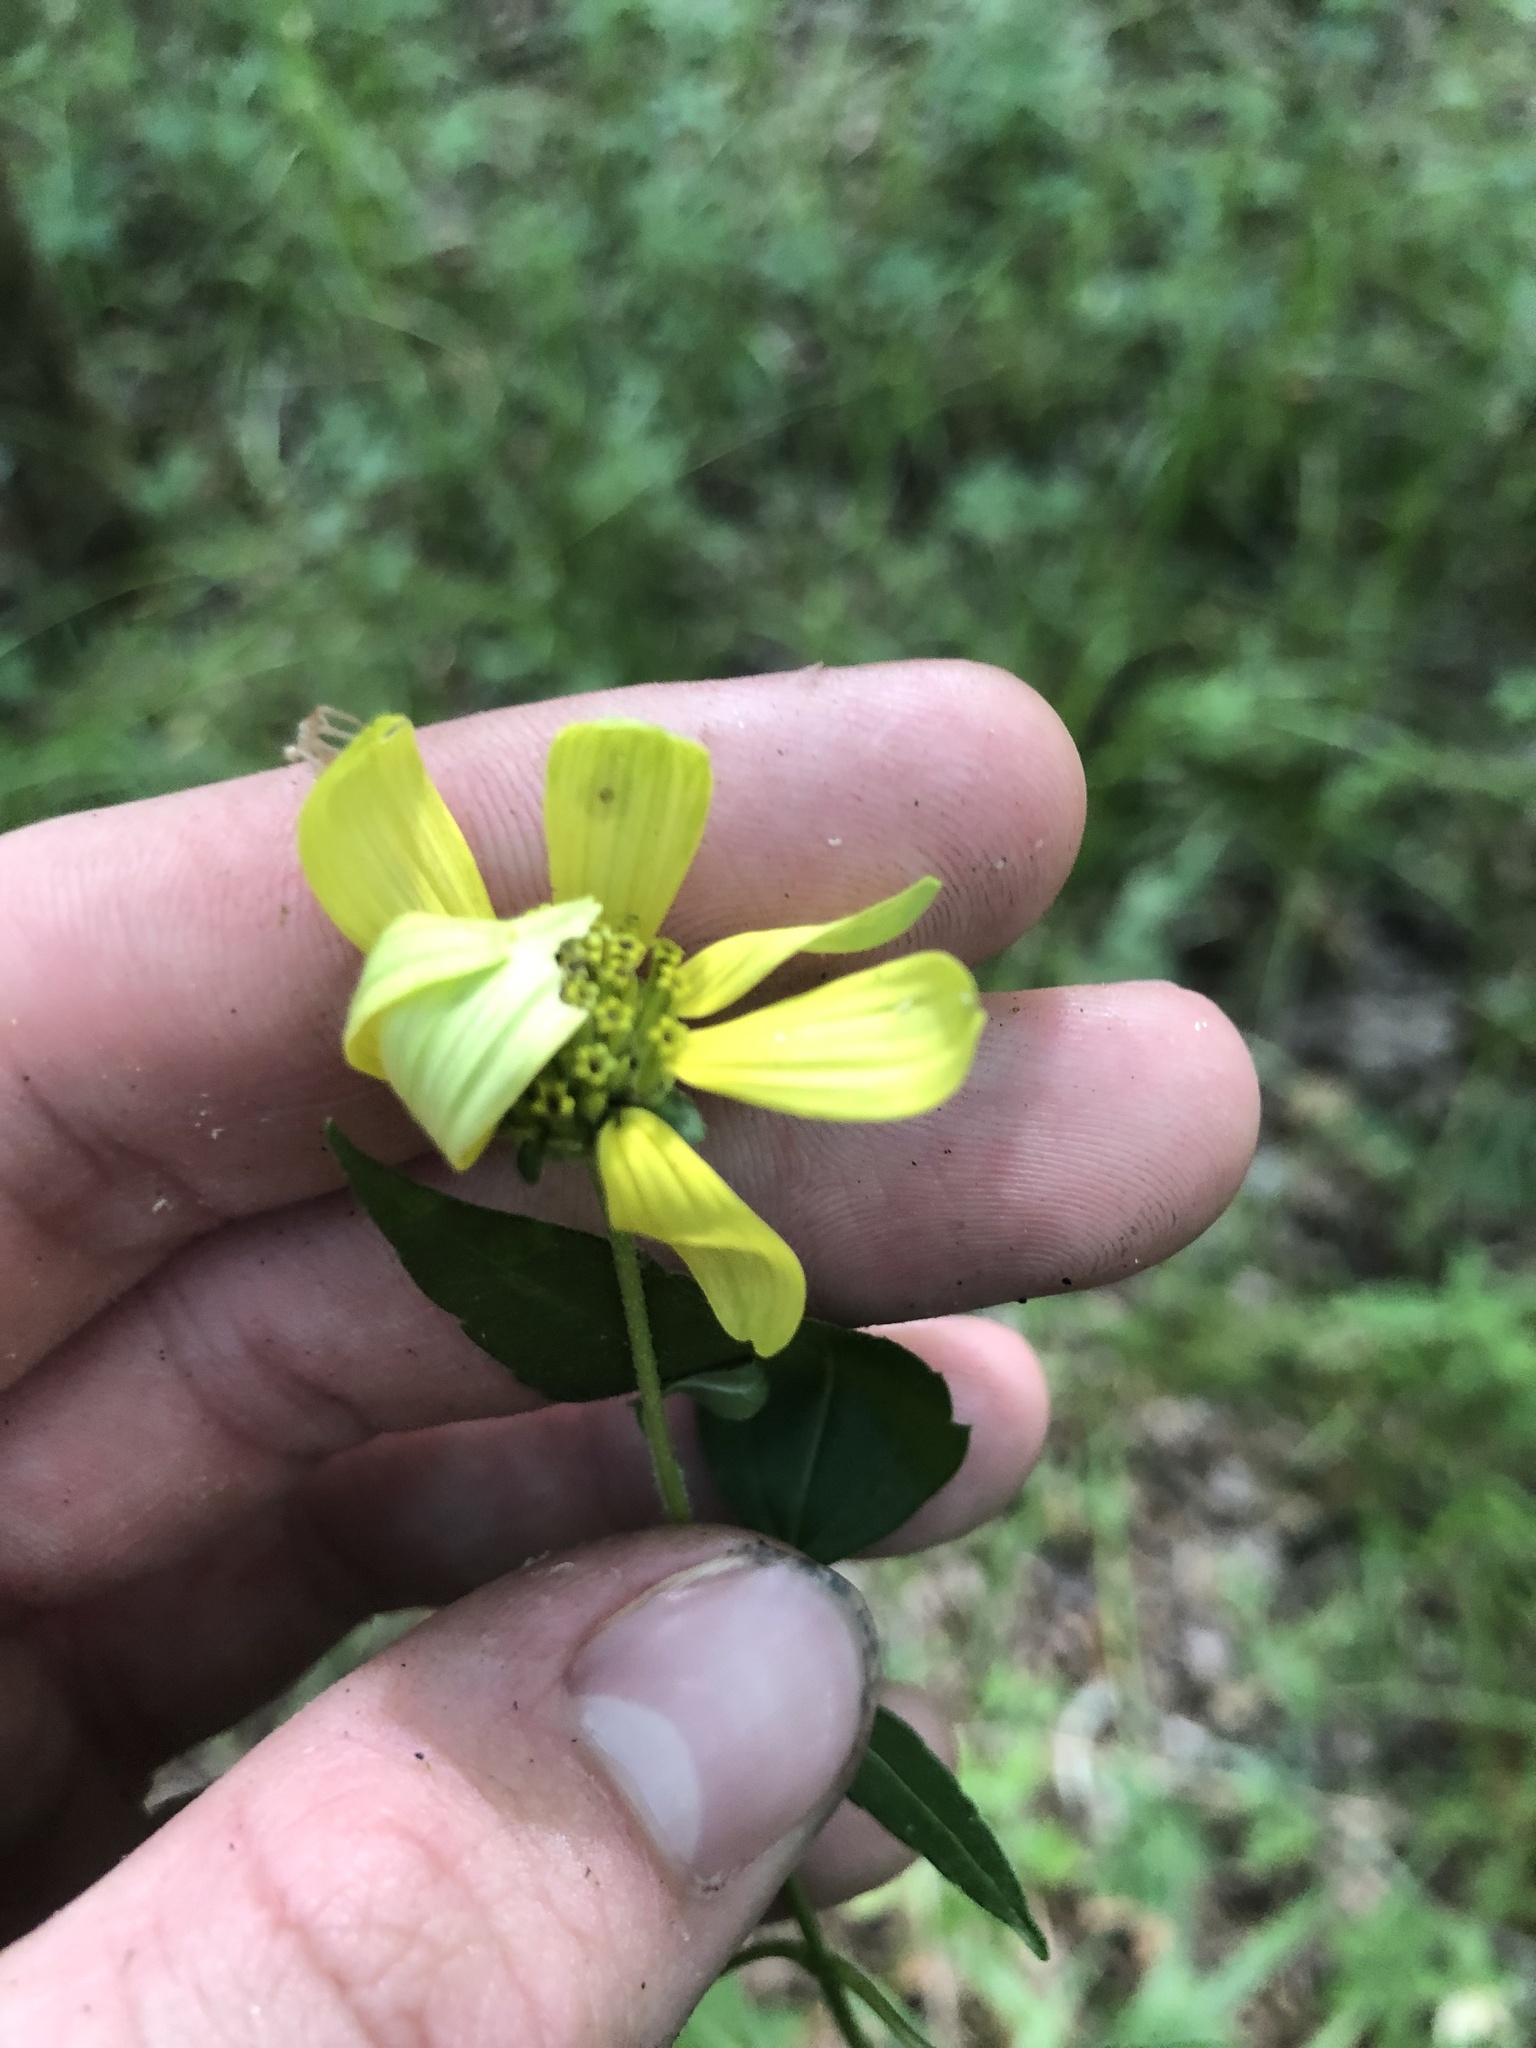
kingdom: Plantae
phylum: Tracheophyta
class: Magnoliopsida
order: Asterales
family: Asteraceae
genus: Heliopsis
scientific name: Heliopsis gracilis
